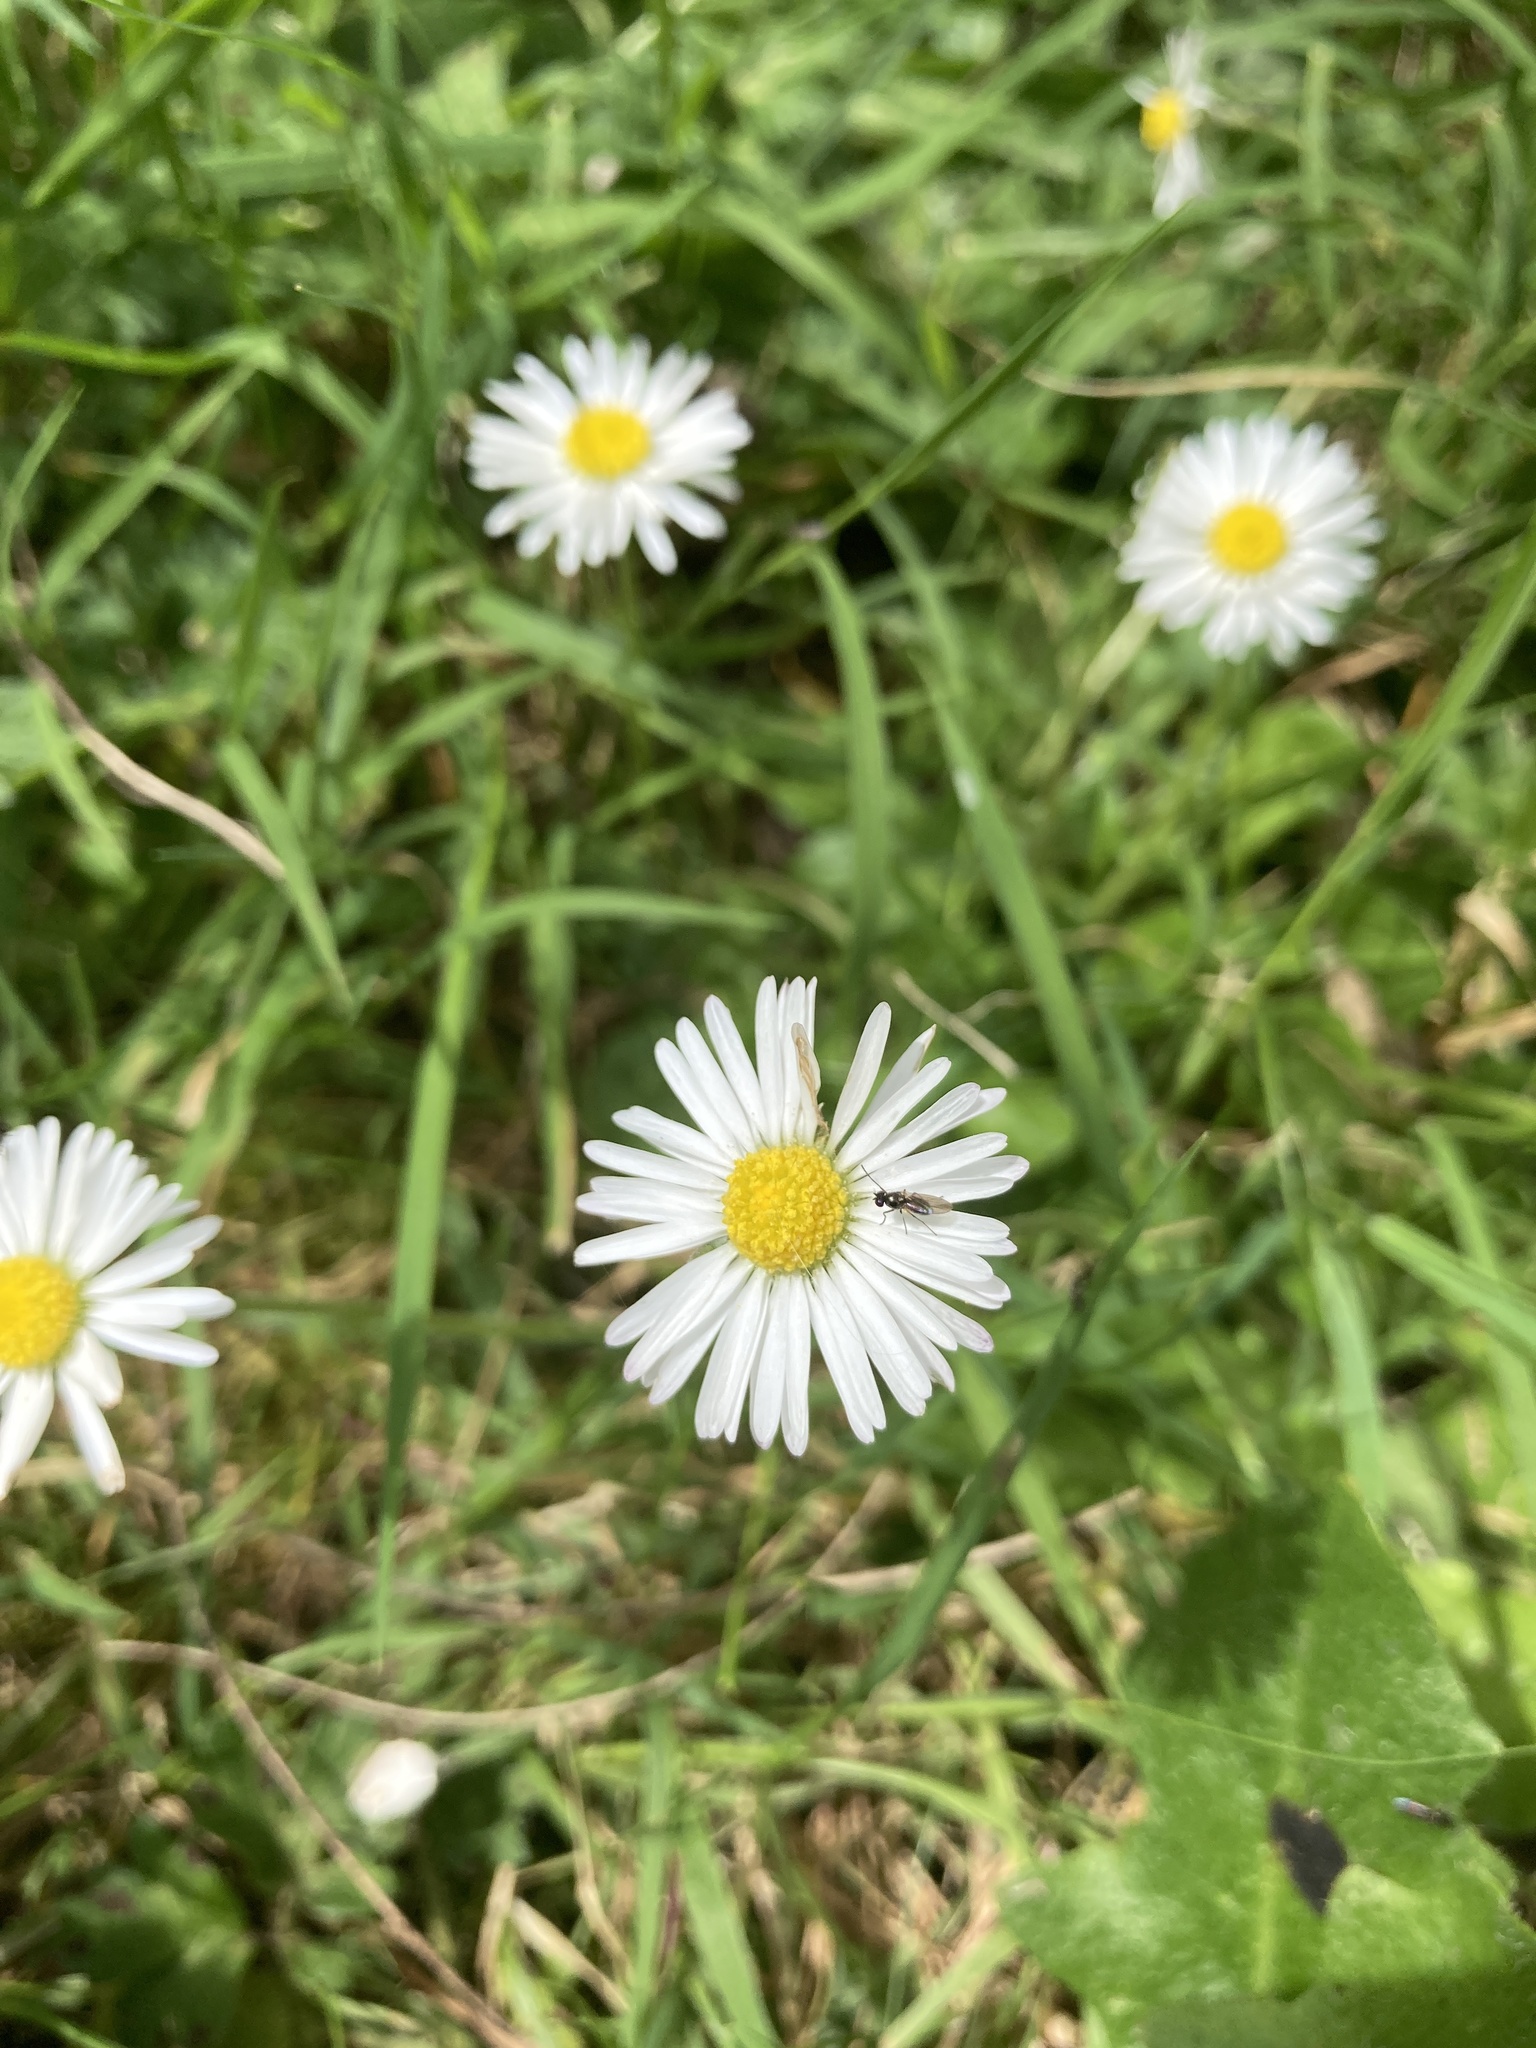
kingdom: Animalia
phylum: Arthropoda
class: Insecta
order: Diptera
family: Ephydridae
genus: Hydrellia
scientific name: Hydrellia tritici
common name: Shore fly
